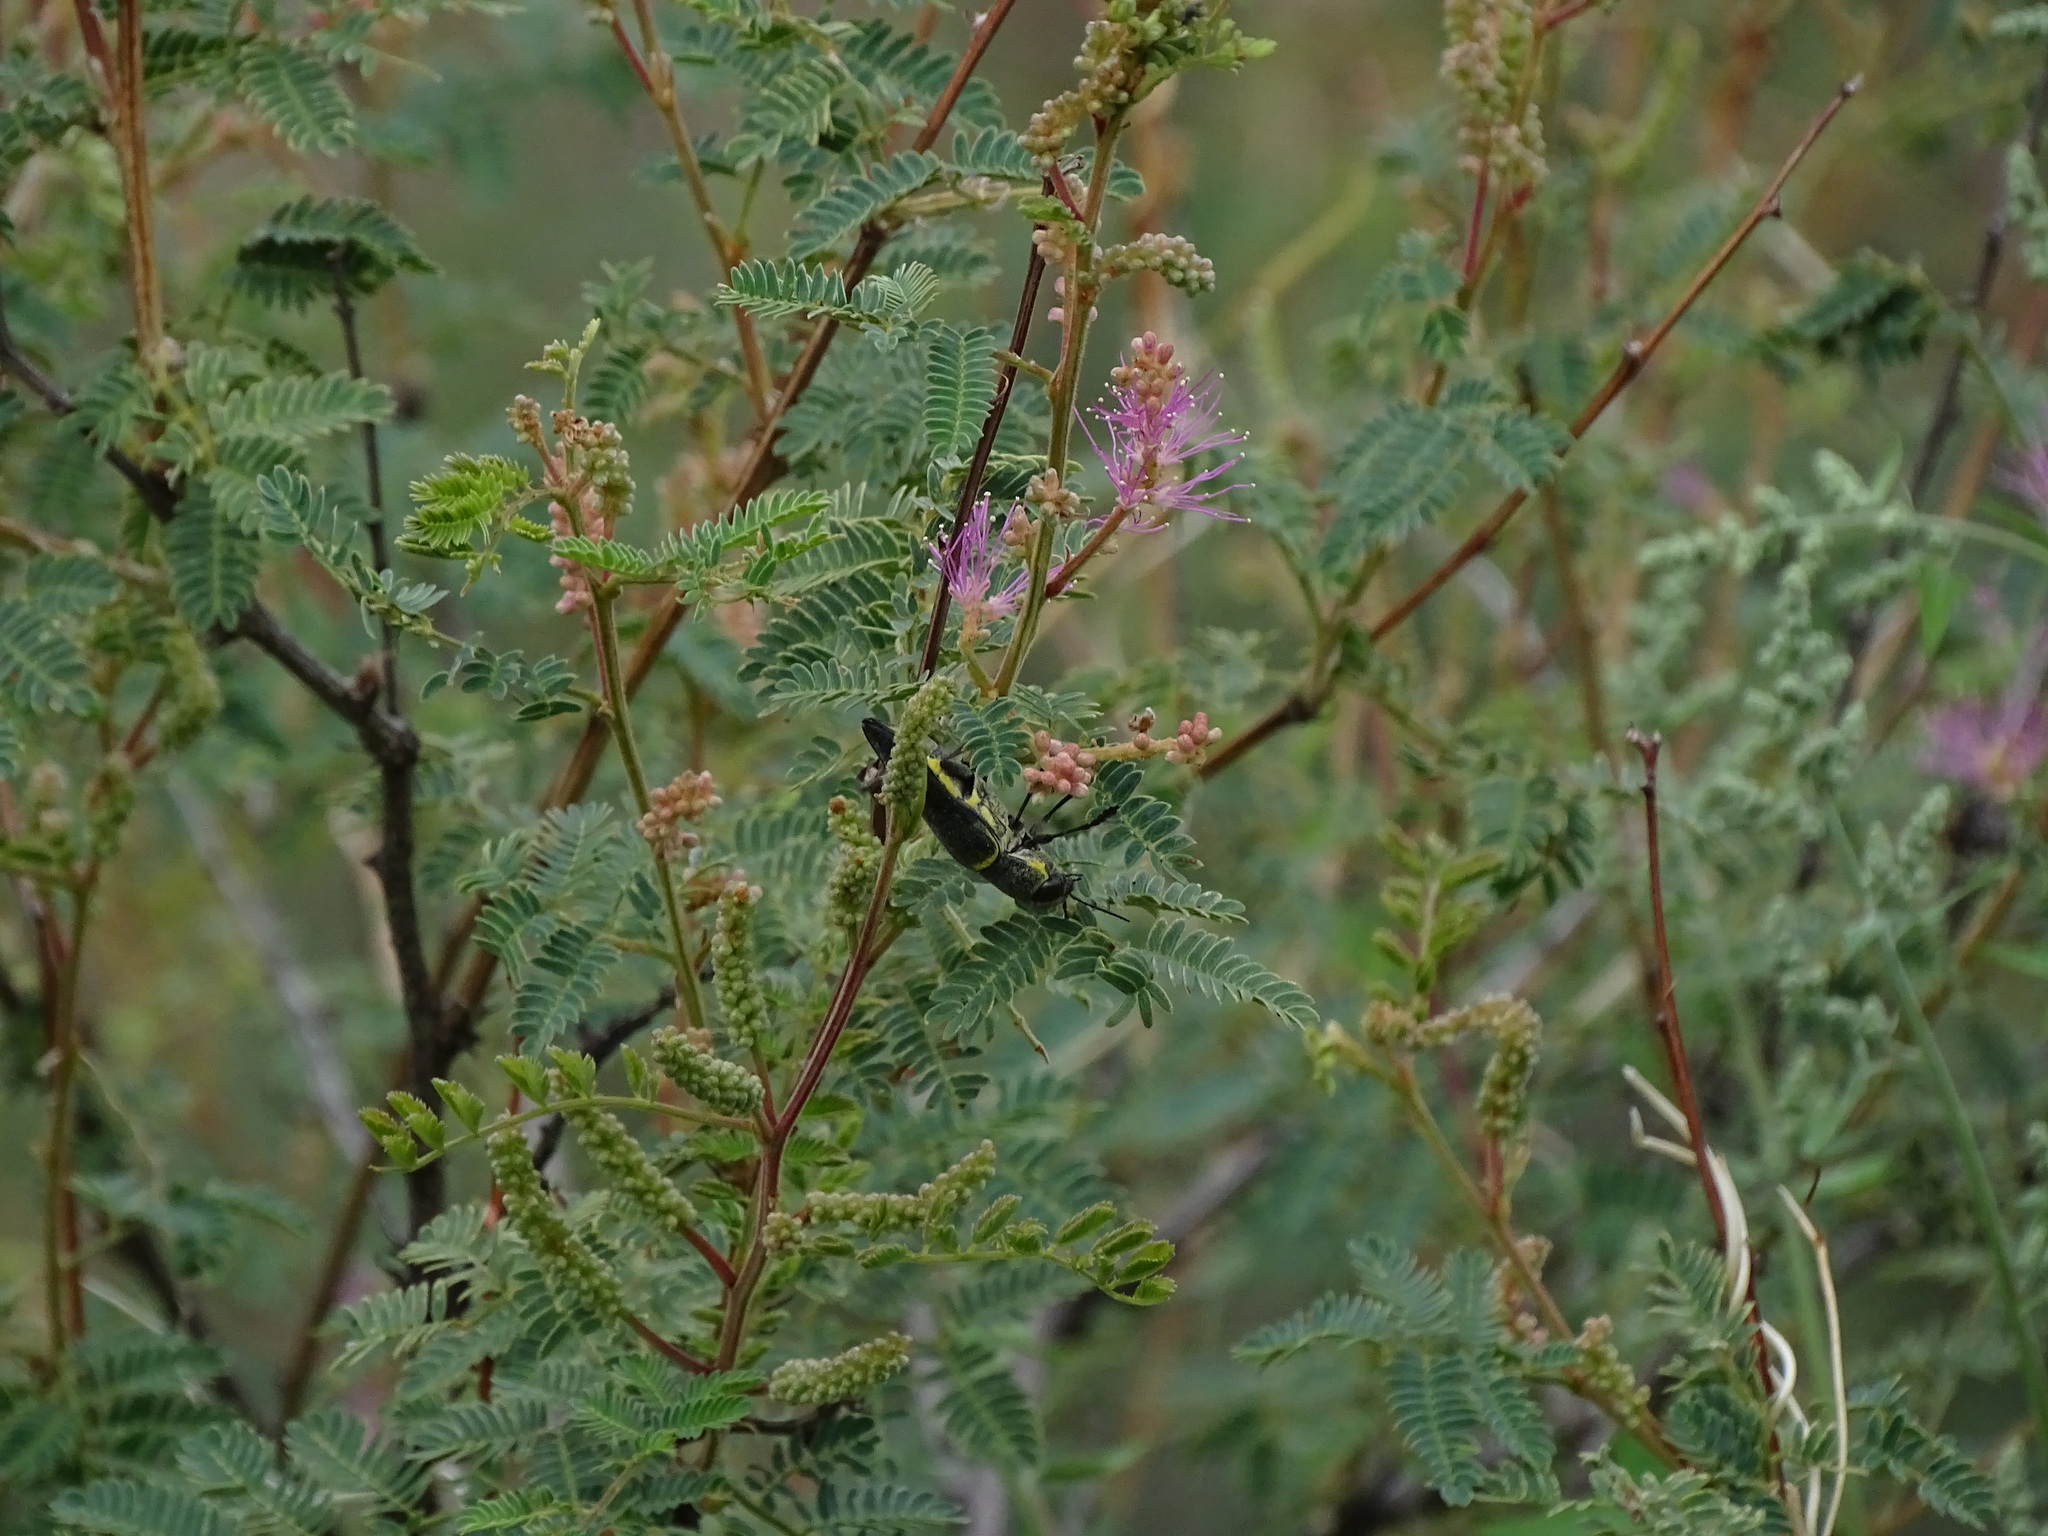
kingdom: Animalia
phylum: Arthropoda
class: Insecta
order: Coleoptera
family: Buprestidae
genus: Hippomelas
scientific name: Hippomelas planicauda
